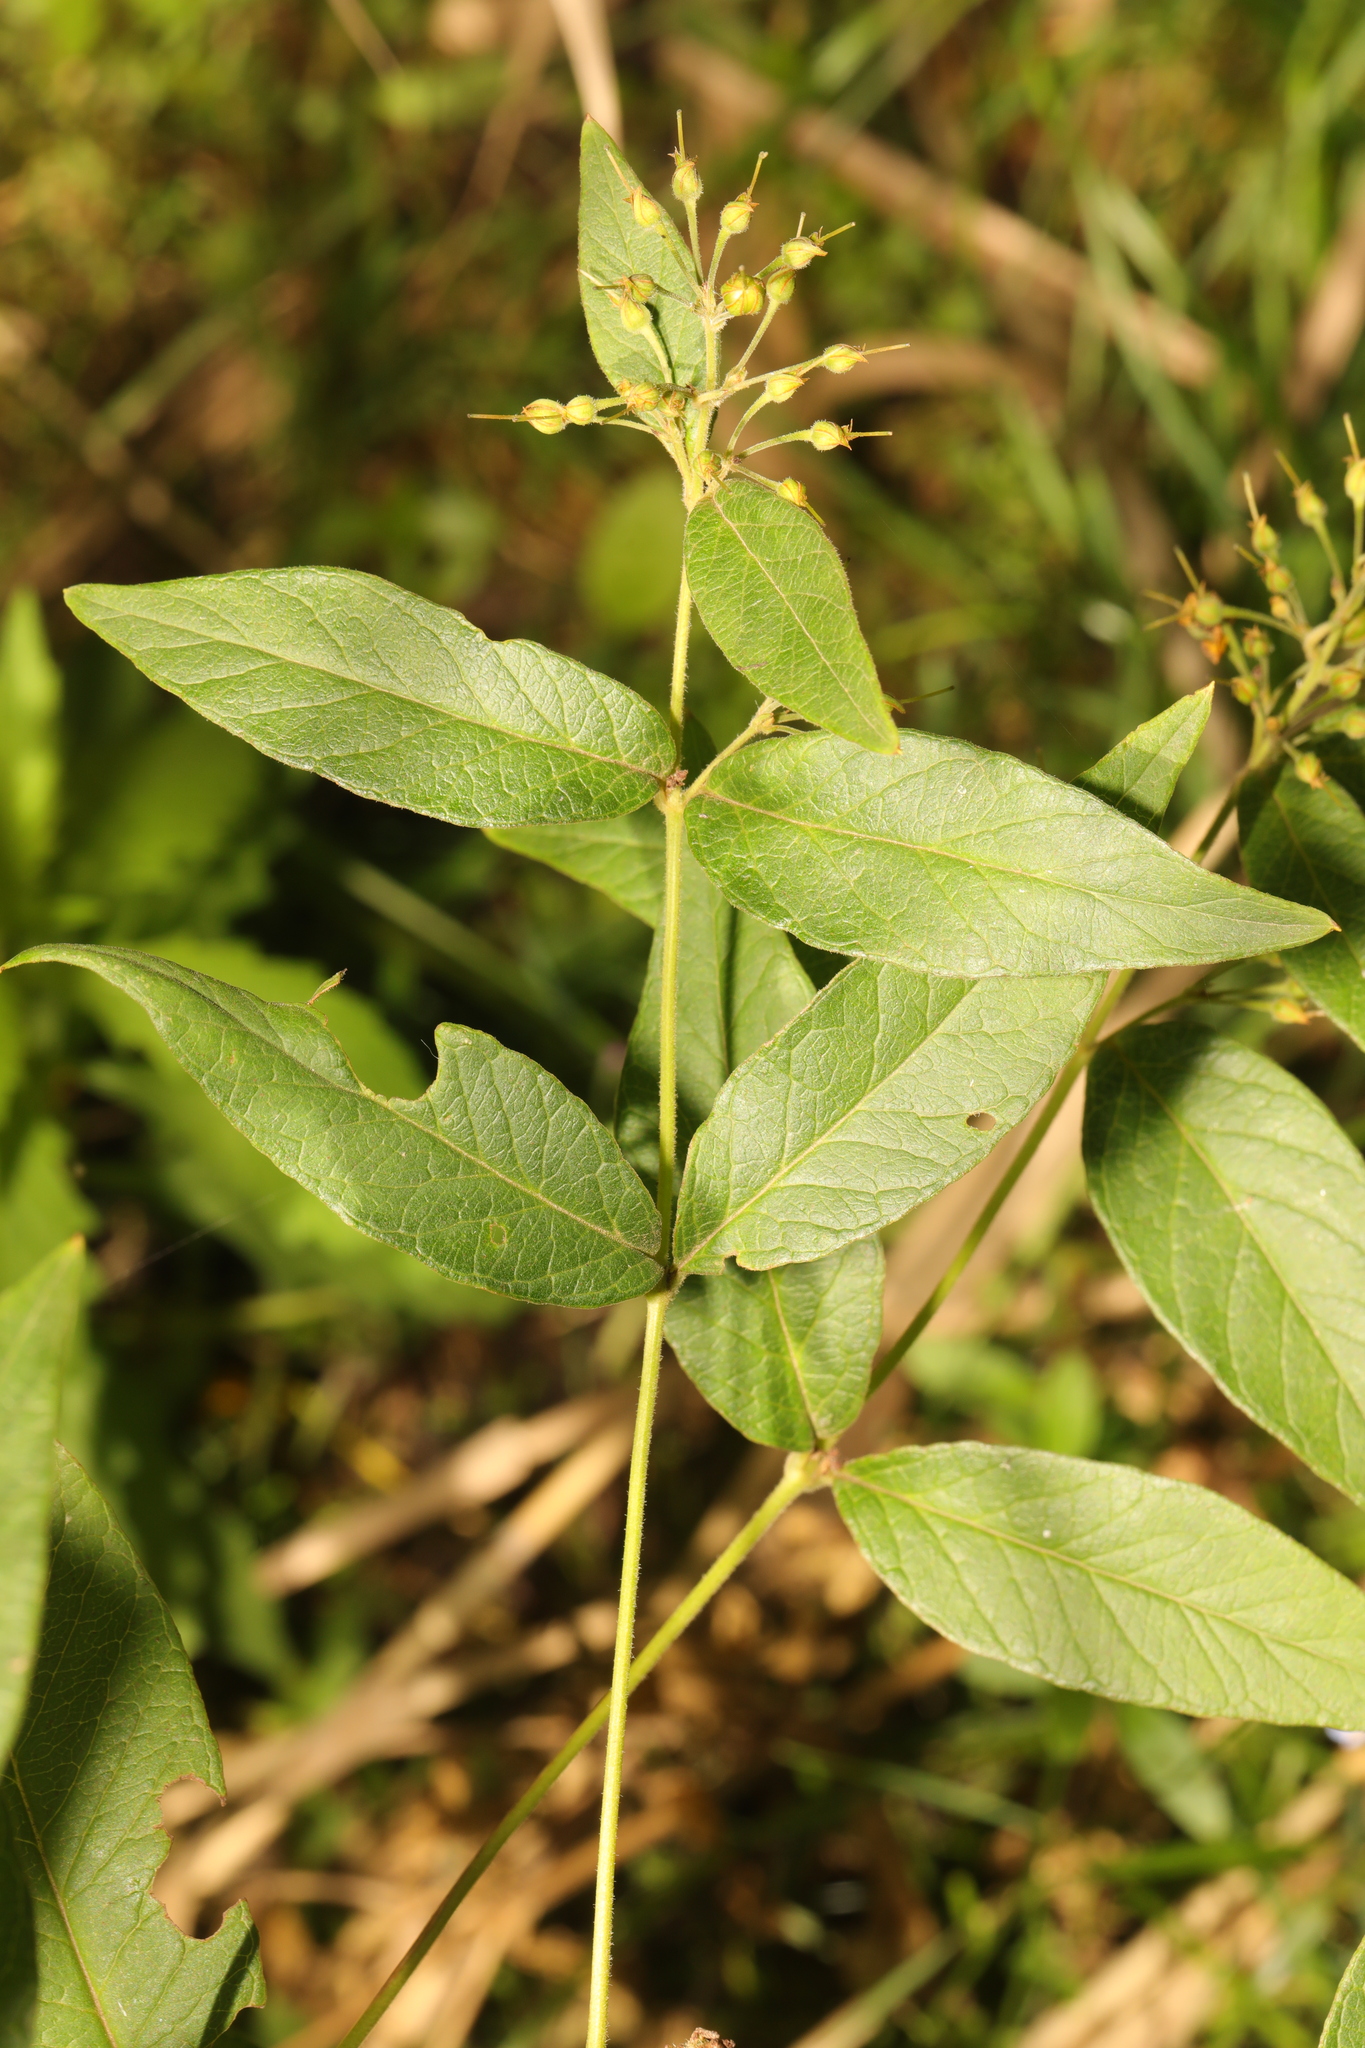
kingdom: Plantae
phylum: Tracheophyta
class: Magnoliopsida
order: Ericales
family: Primulaceae
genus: Lysimachia
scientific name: Lysimachia vulgaris
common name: Yellow loosestrife
